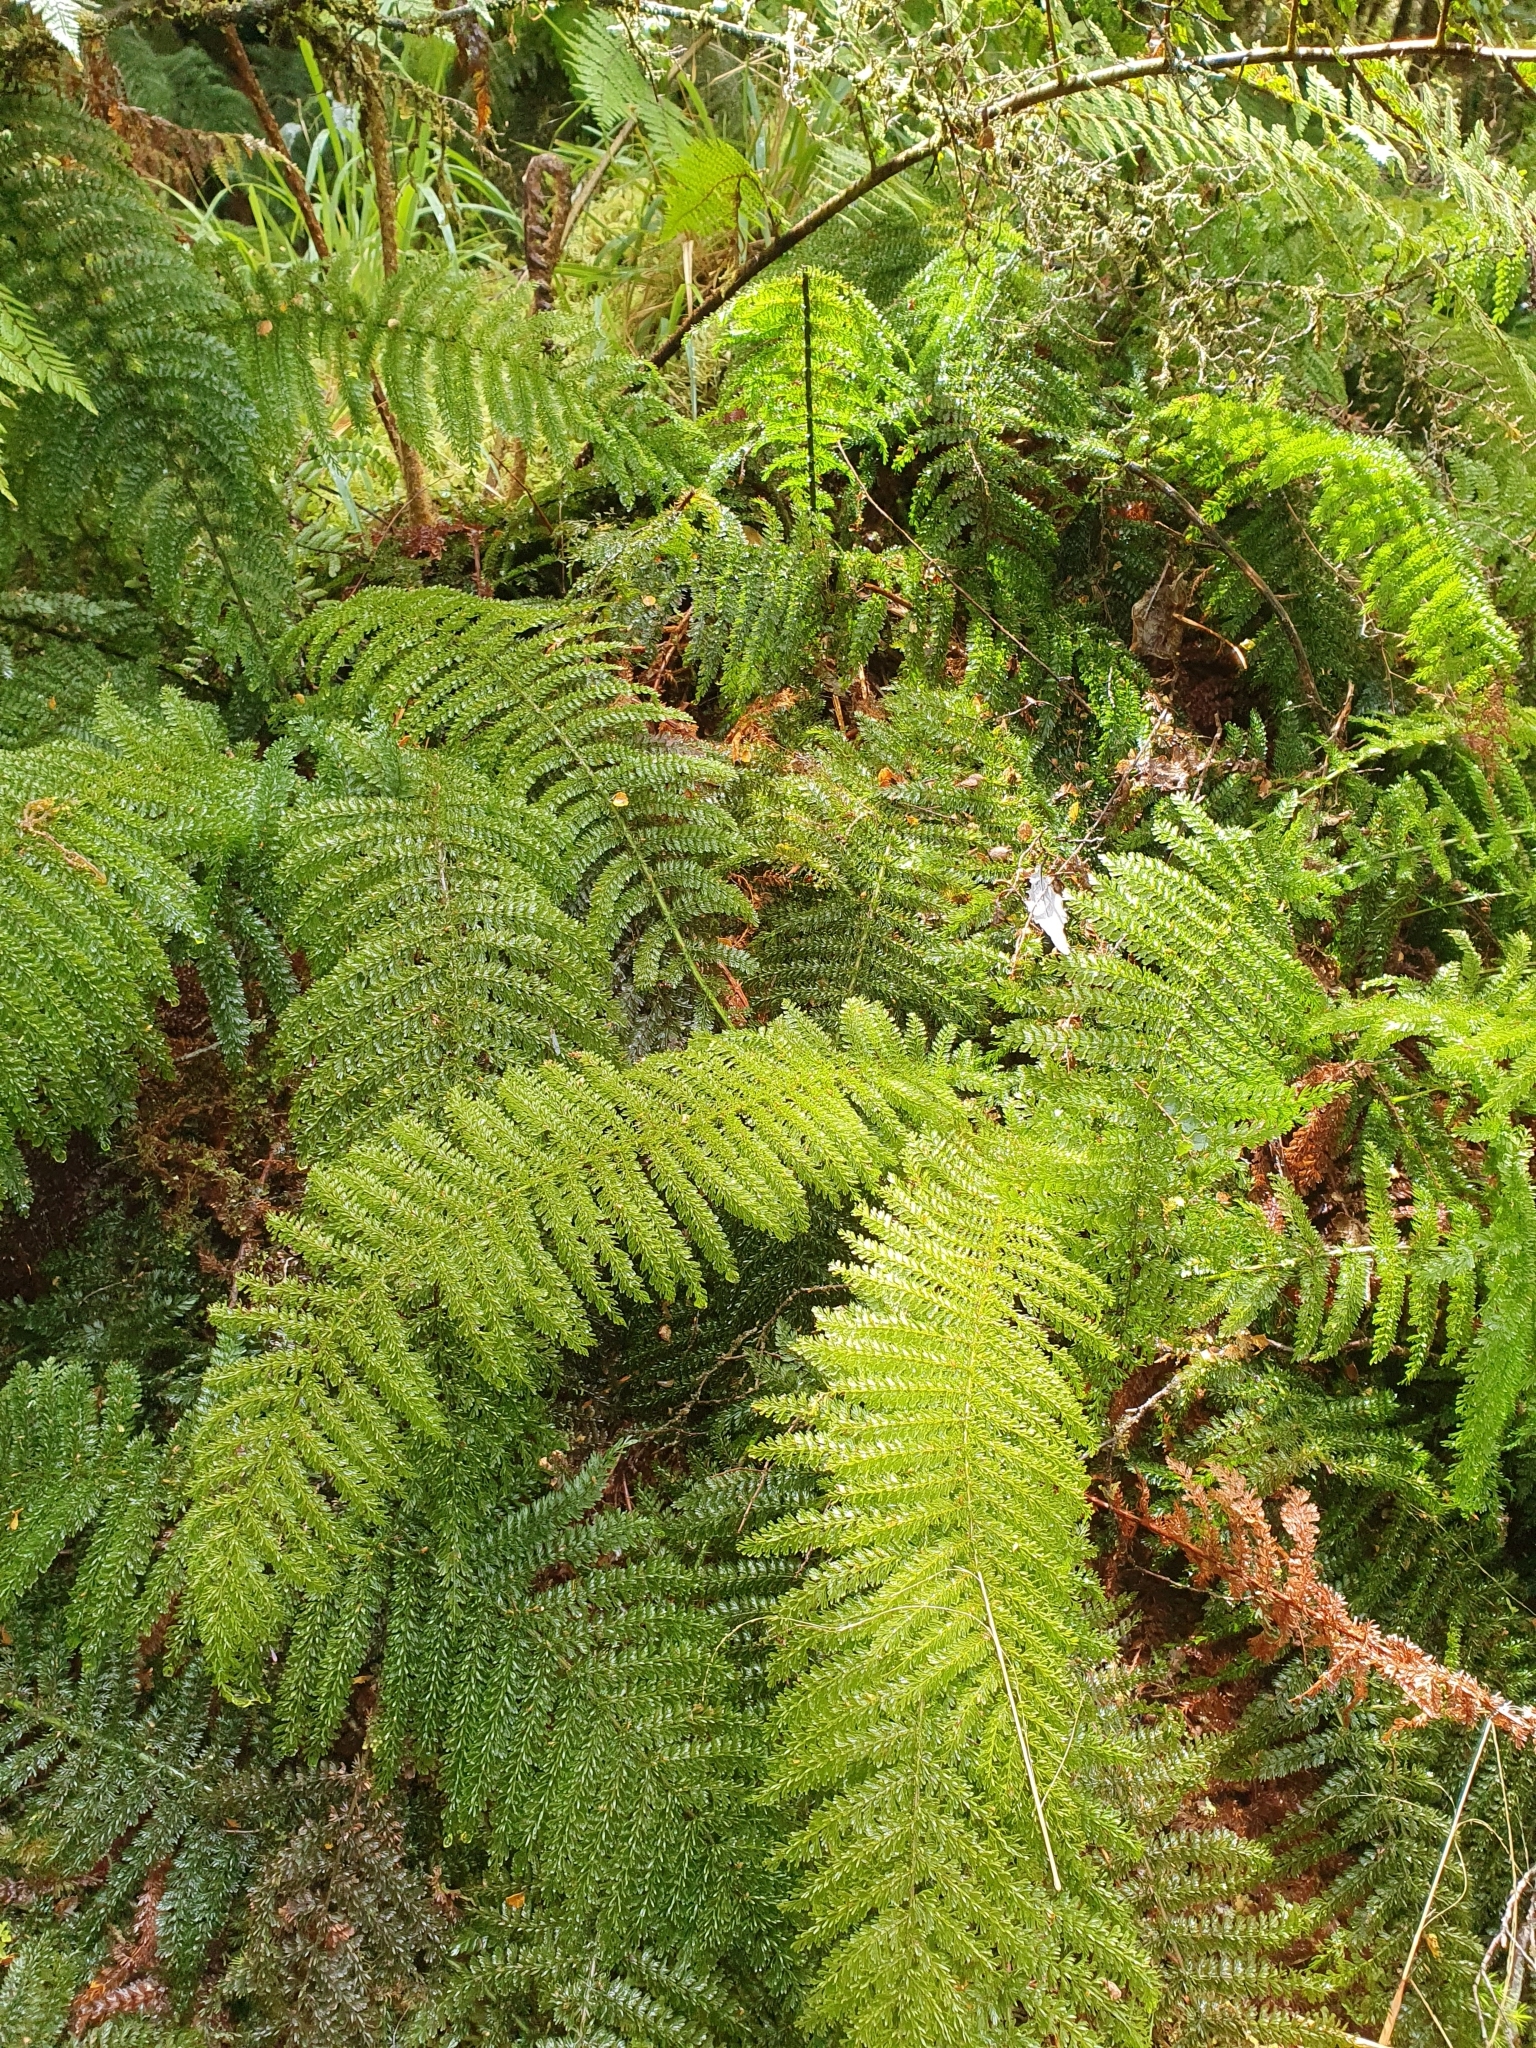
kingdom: Plantae
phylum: Tracheophyta
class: Polypodiopsida
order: Osmundales
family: Osmundaceae
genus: Leptopteris
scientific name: Leptopteris superba
